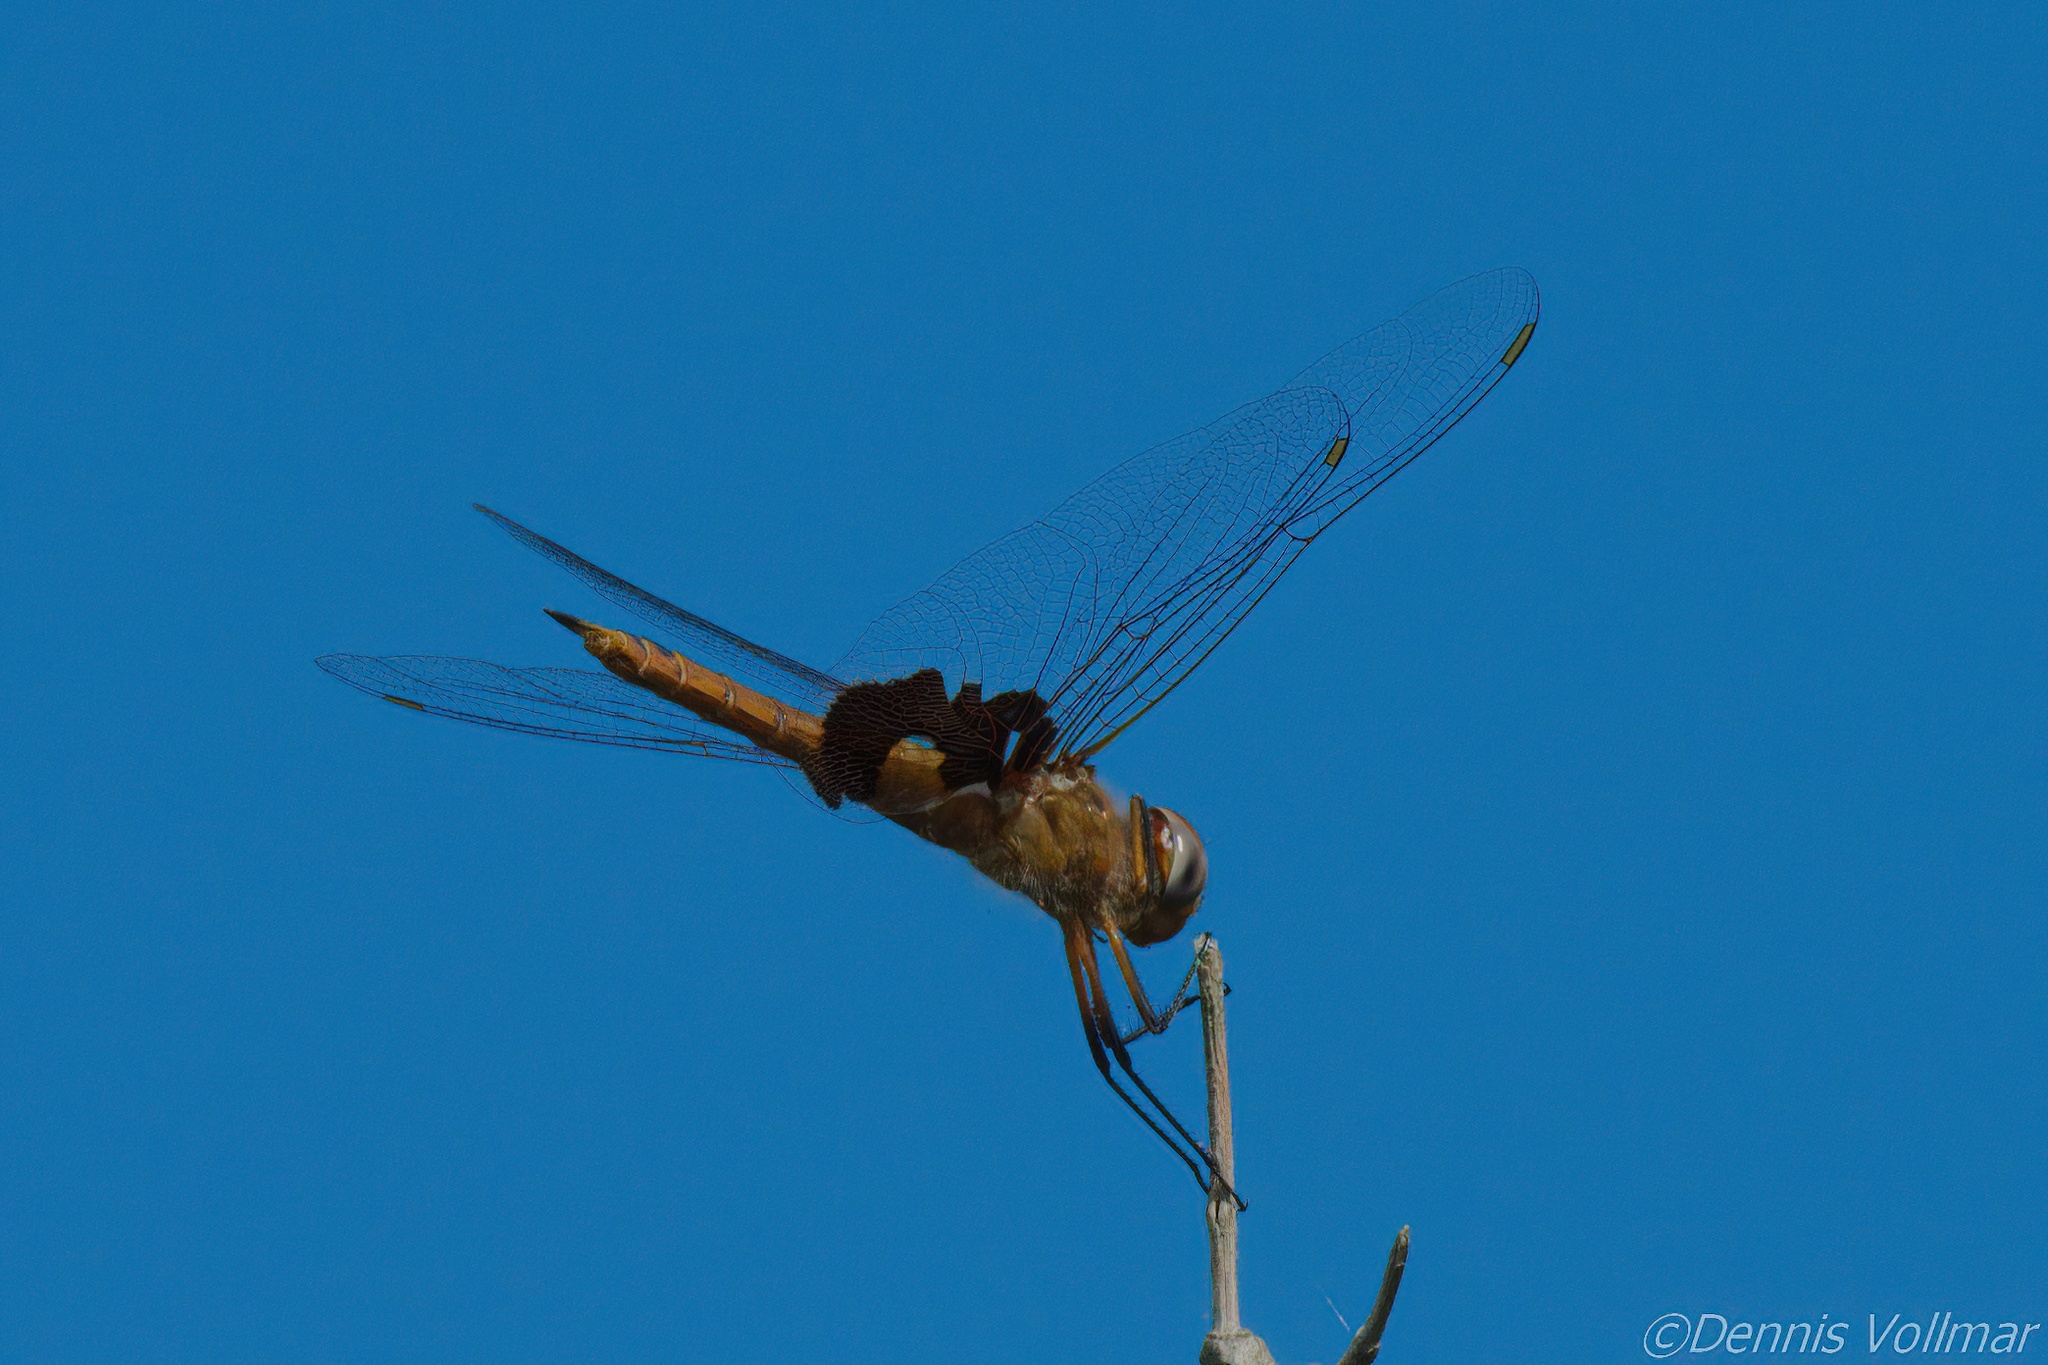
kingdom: Animalia
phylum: Arthropoda
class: Insecta
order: Odonata
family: Libellulidae
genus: Tramea
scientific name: Tramea onusta
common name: Red saddlebags
